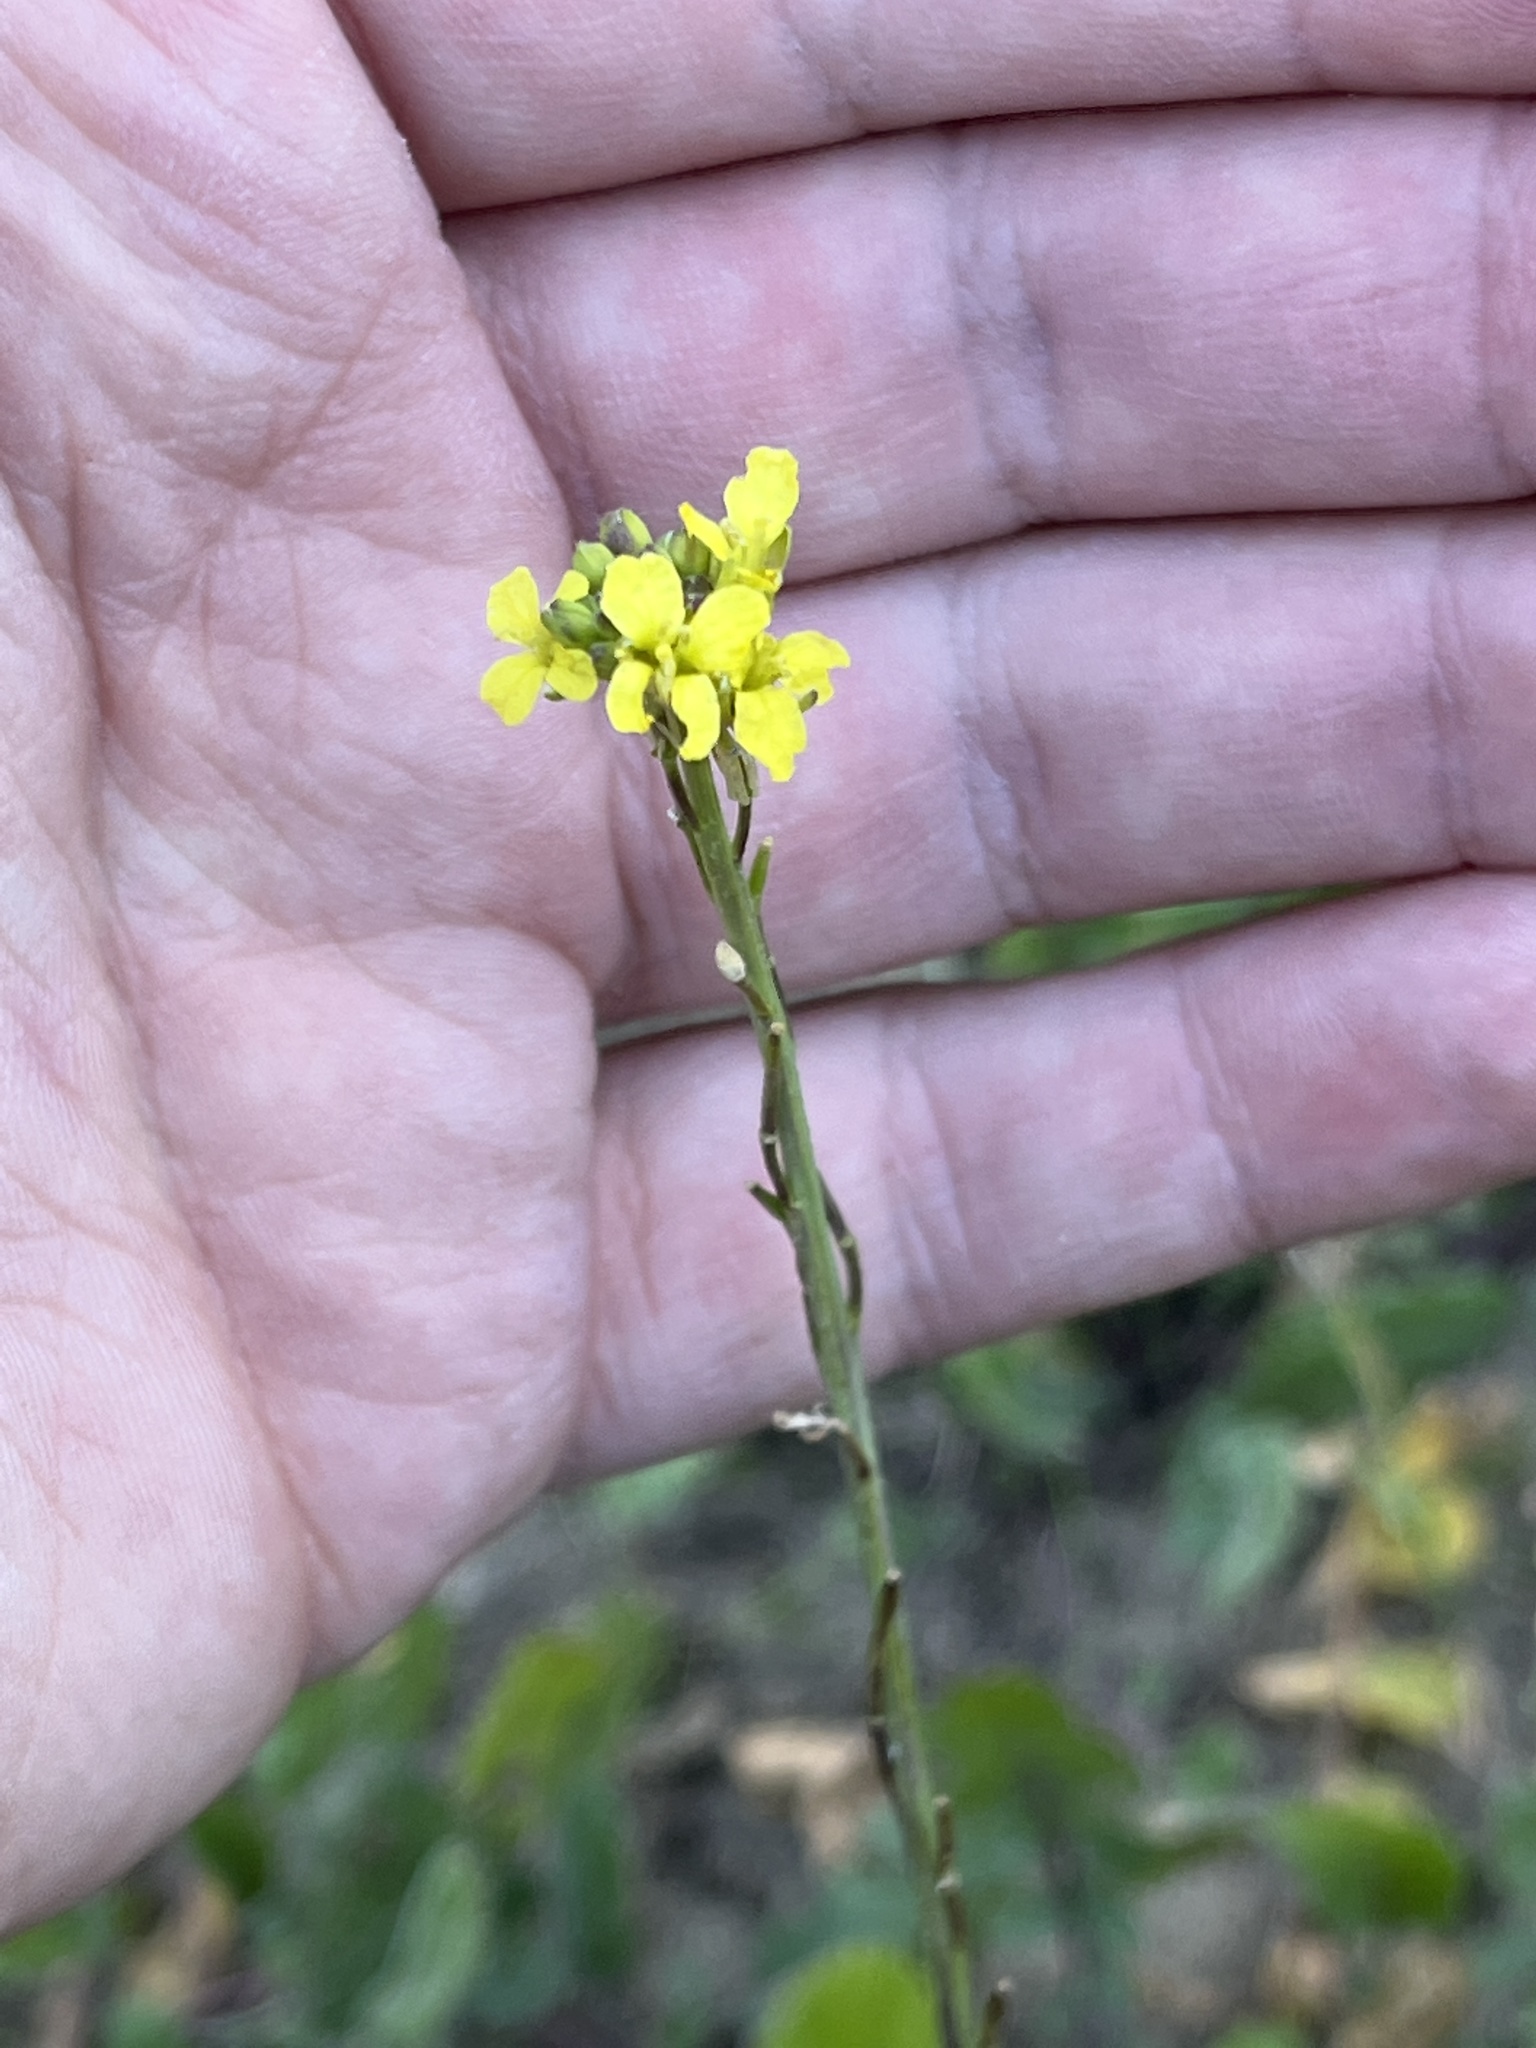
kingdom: Plantae
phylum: Tracheophyta
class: Magnoliopsida
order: Brassicales
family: Brassicaceae
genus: Hirschfeldia
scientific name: Hirschfeldia incana
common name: Hoary mustard
